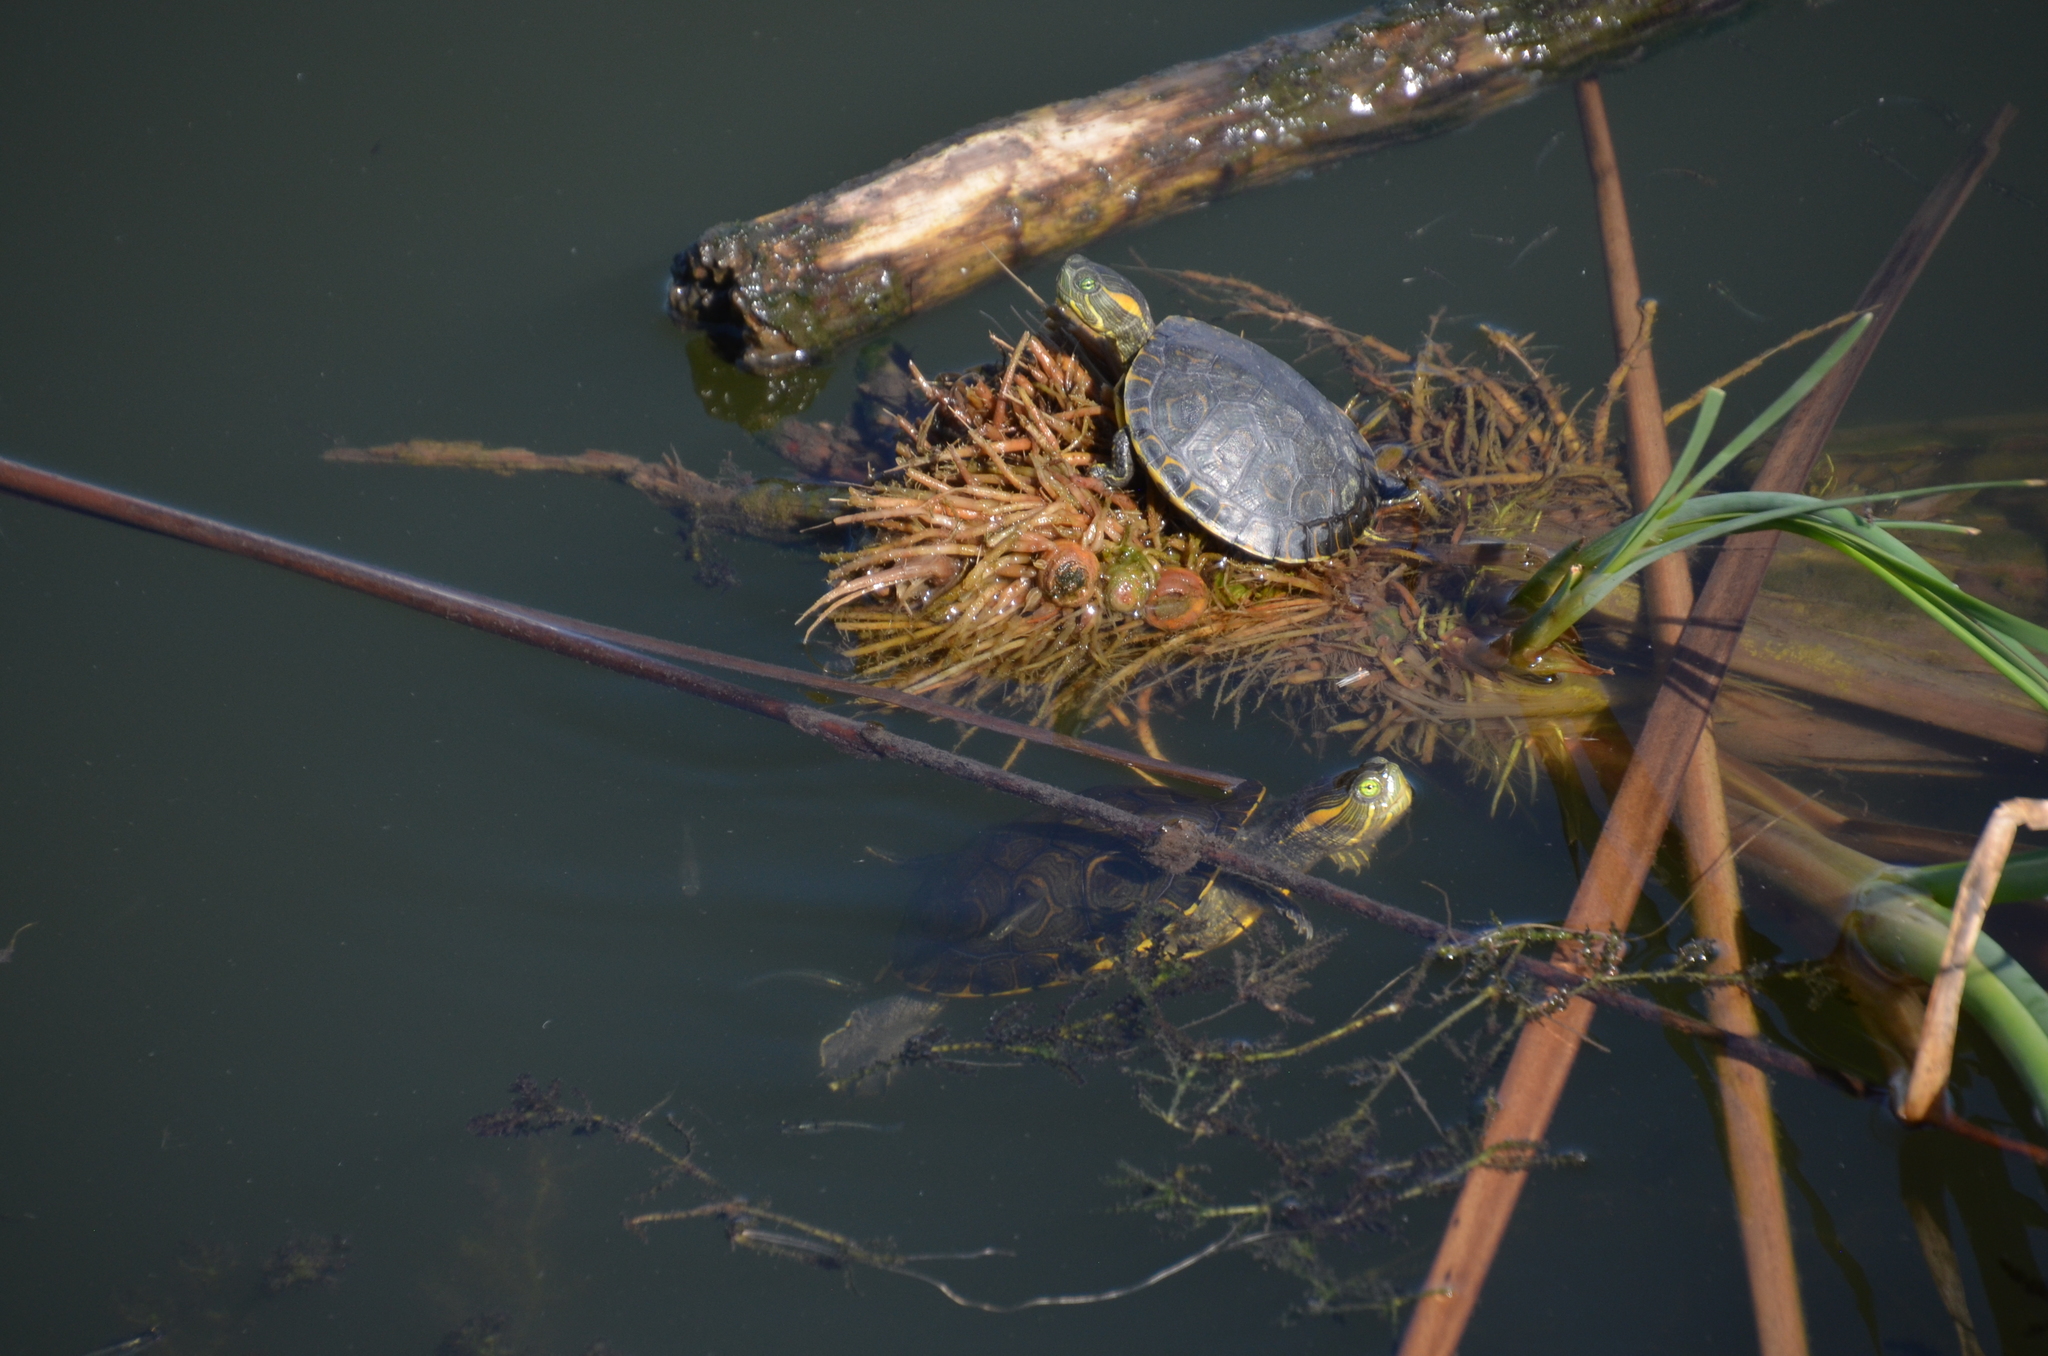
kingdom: Animalia
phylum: Chordata
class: Testudines
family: Emydidae
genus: Trachemys
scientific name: Trachemys ornata
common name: Ornate slider
